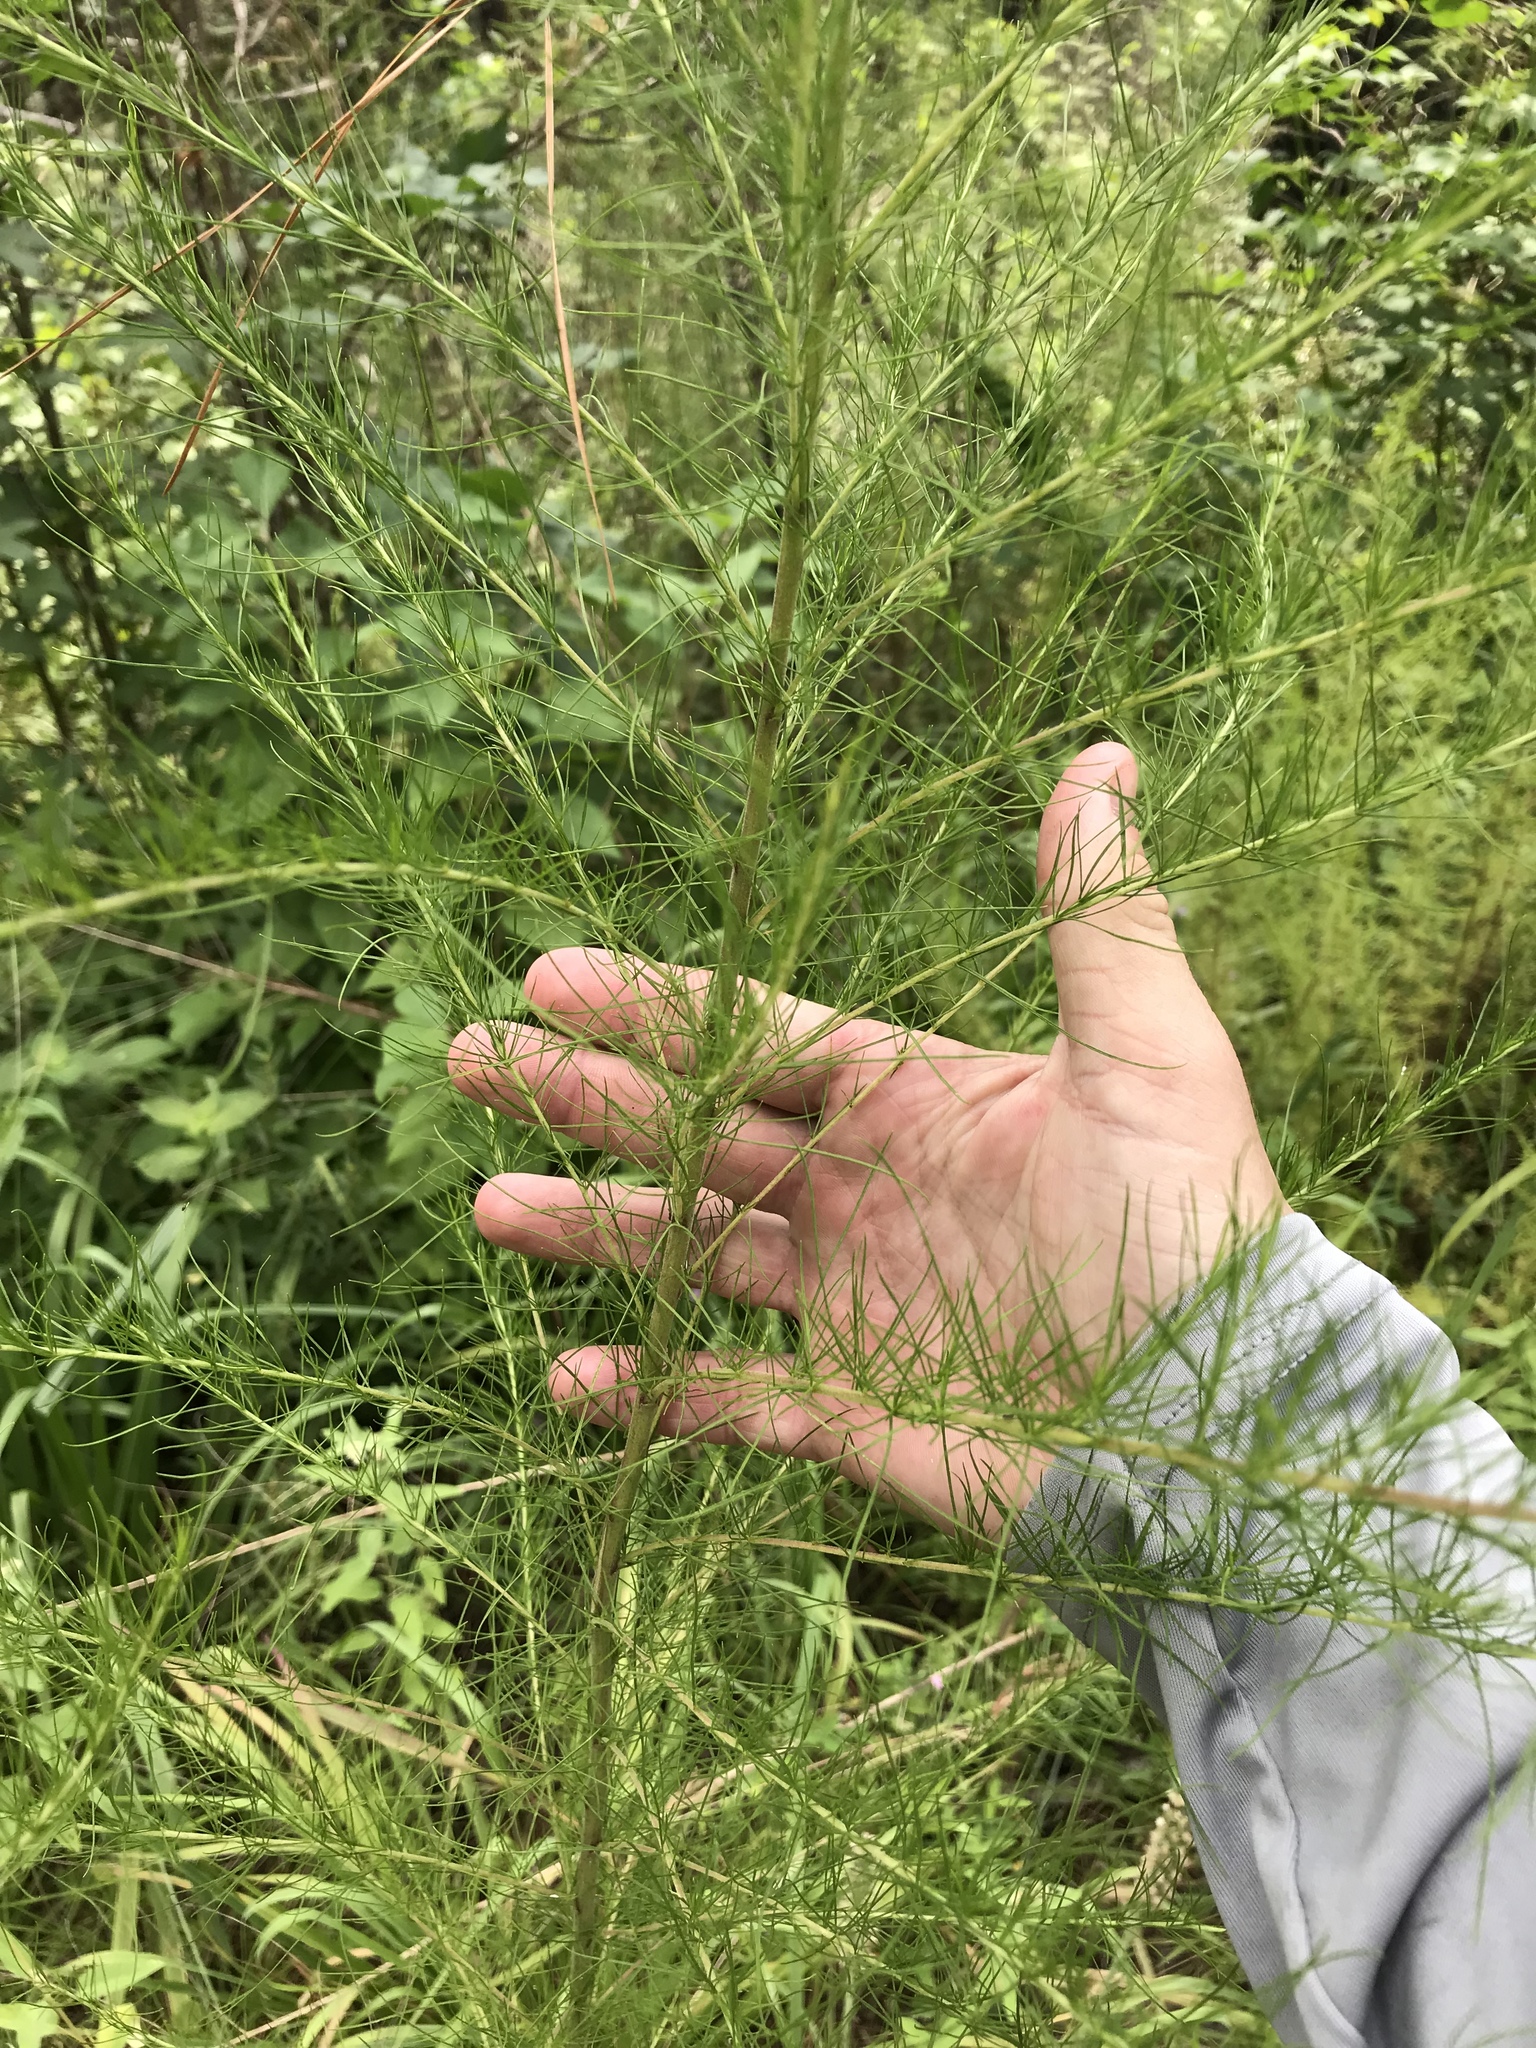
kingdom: Plantae
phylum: Tracheophyta
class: Magnoliopsida
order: Asterales
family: Asteraceae
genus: Eupatorium
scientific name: Eupatorium capillifolium
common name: Dog-fennel
